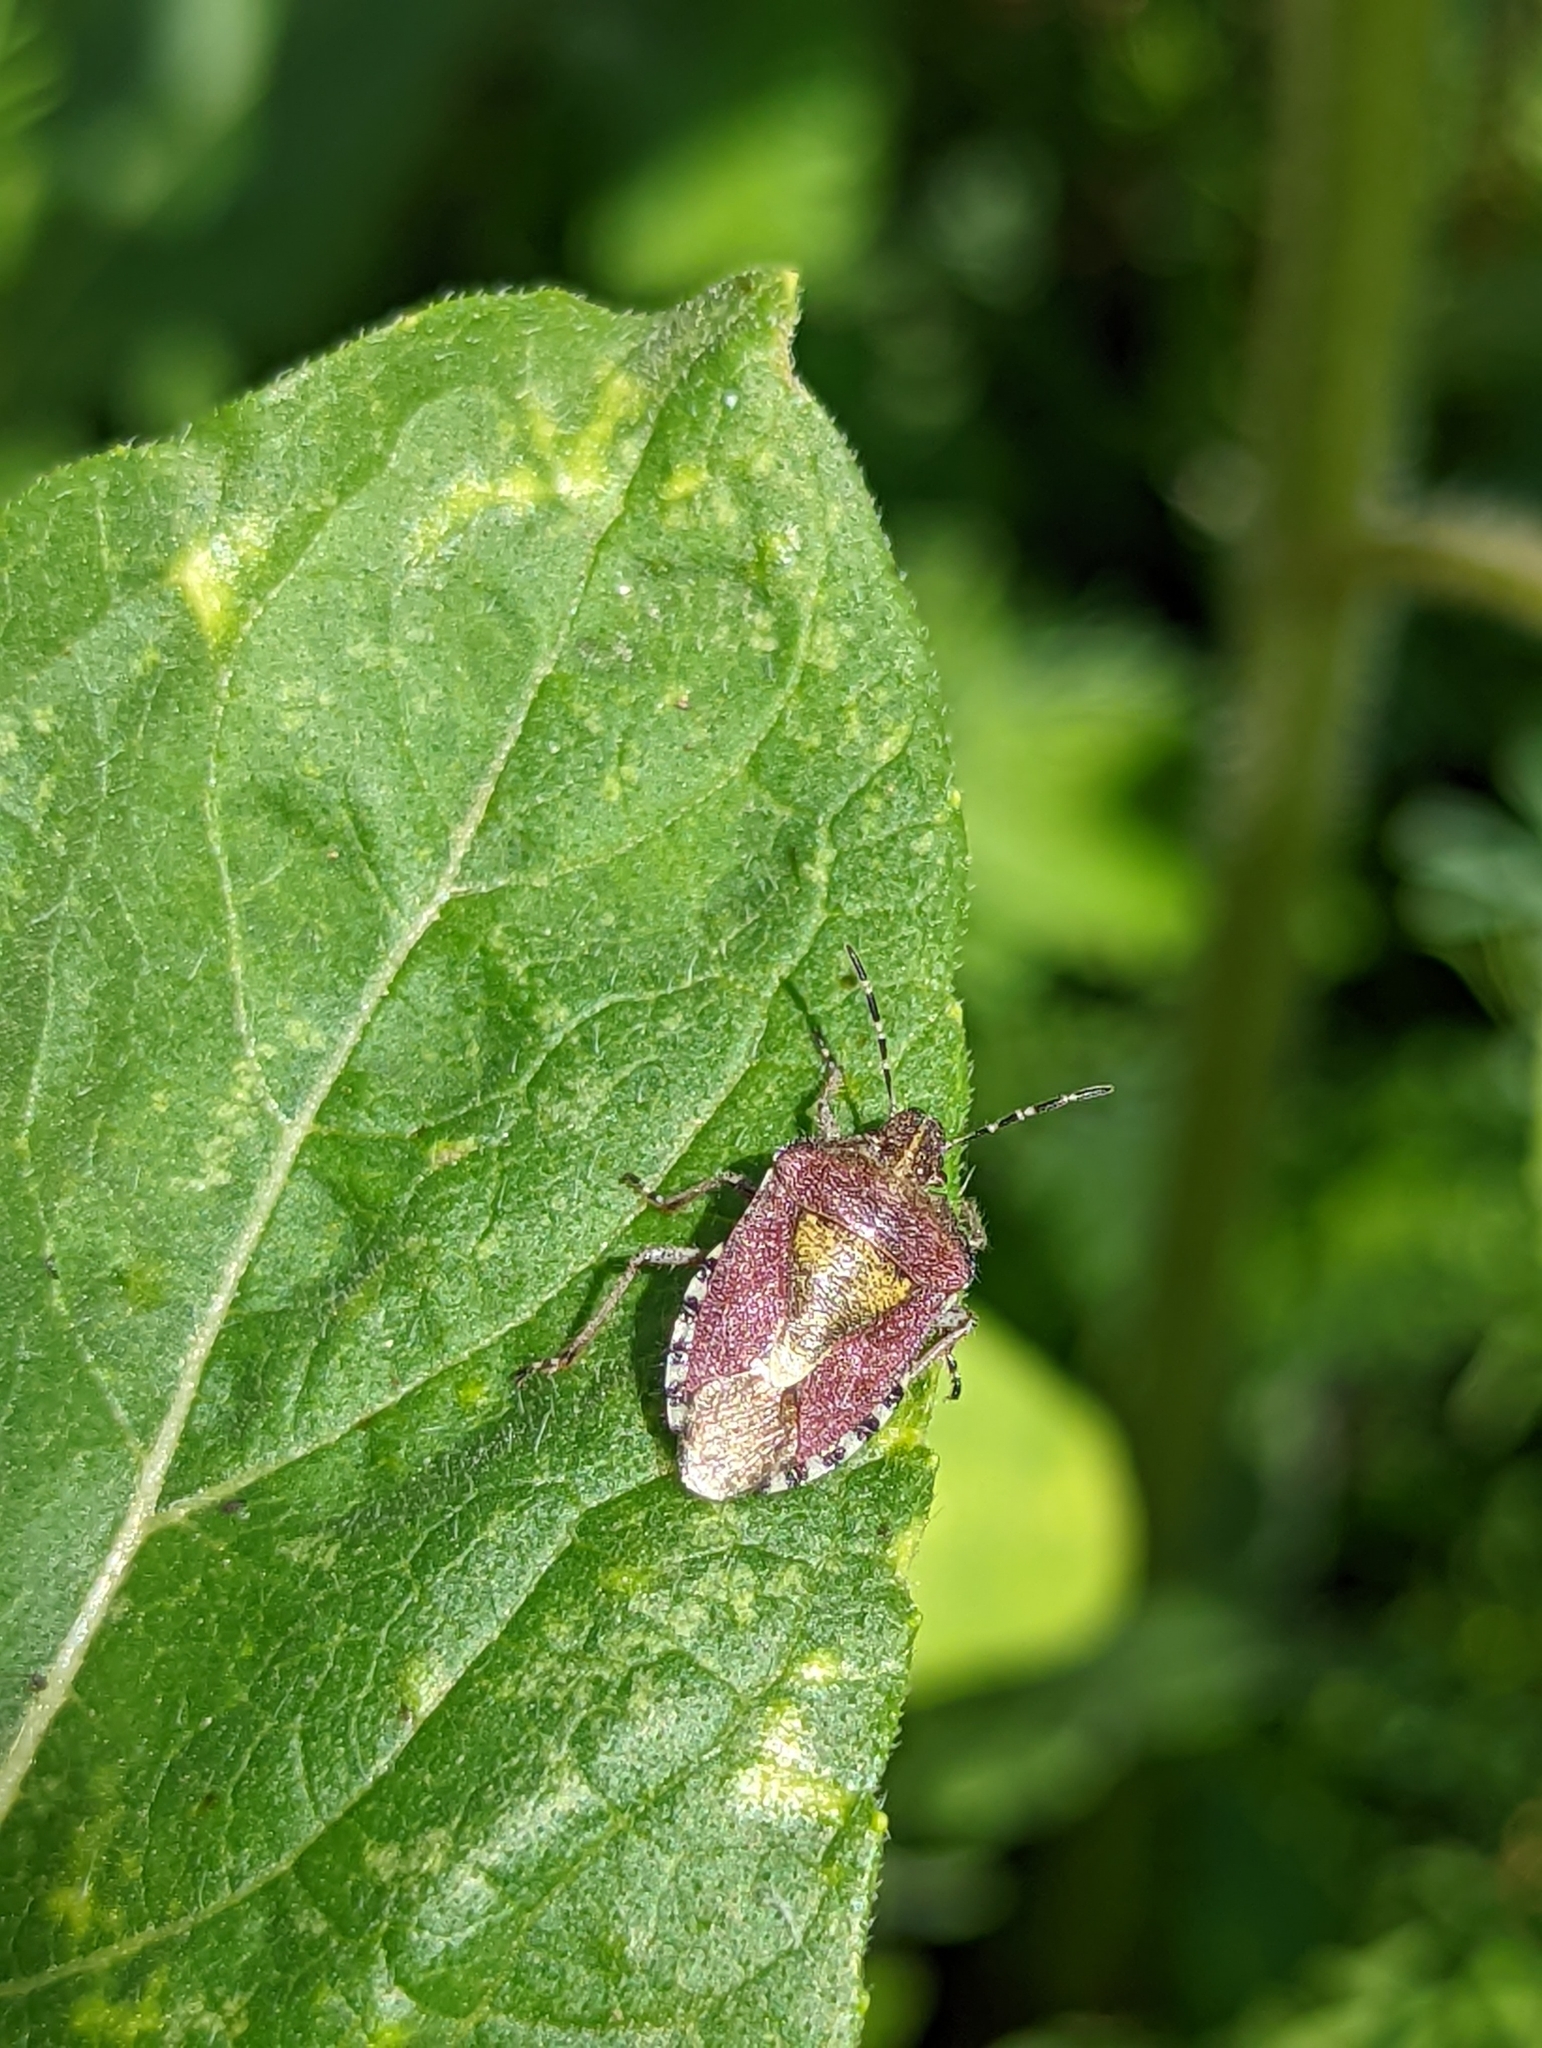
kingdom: Animalia
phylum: Arthropoda
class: Insecta
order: Hemiptera
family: Pentatomidae
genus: Dolycoris
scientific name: Dolycoris baccarum
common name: Sloe bug
